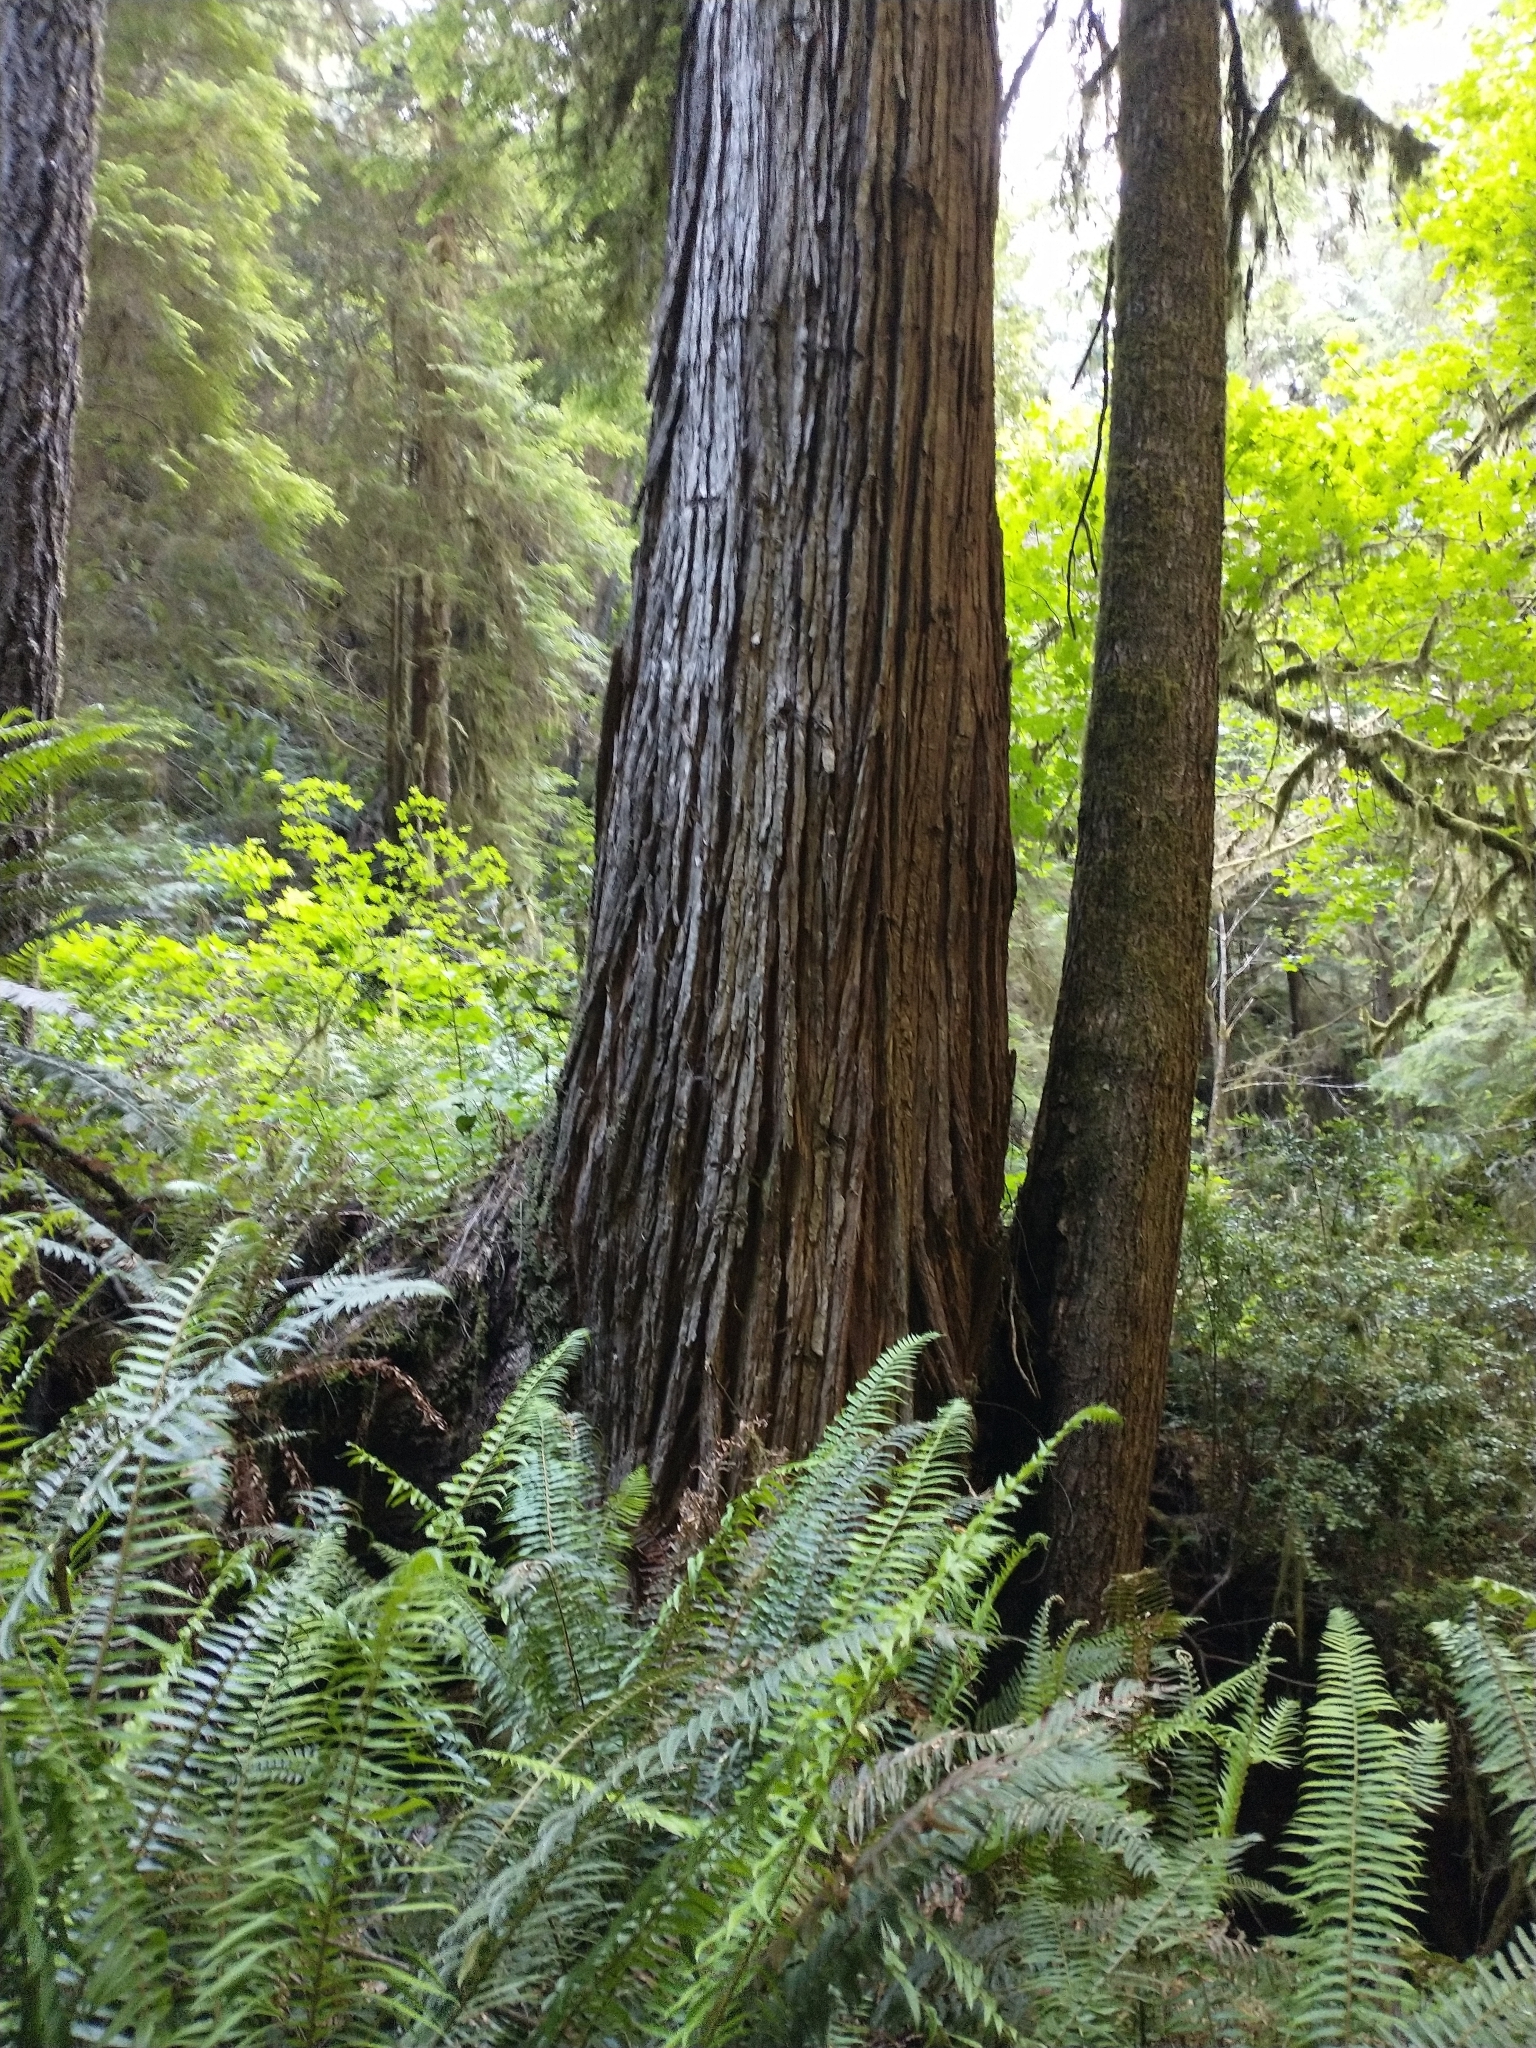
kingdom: Plantae
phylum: Tracheophyta
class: Pinopsida
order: Pinales
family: Cupressaceae
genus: Chamaecyparis
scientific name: Chamaecyparis lawsoniana
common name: Lawson's cypress
